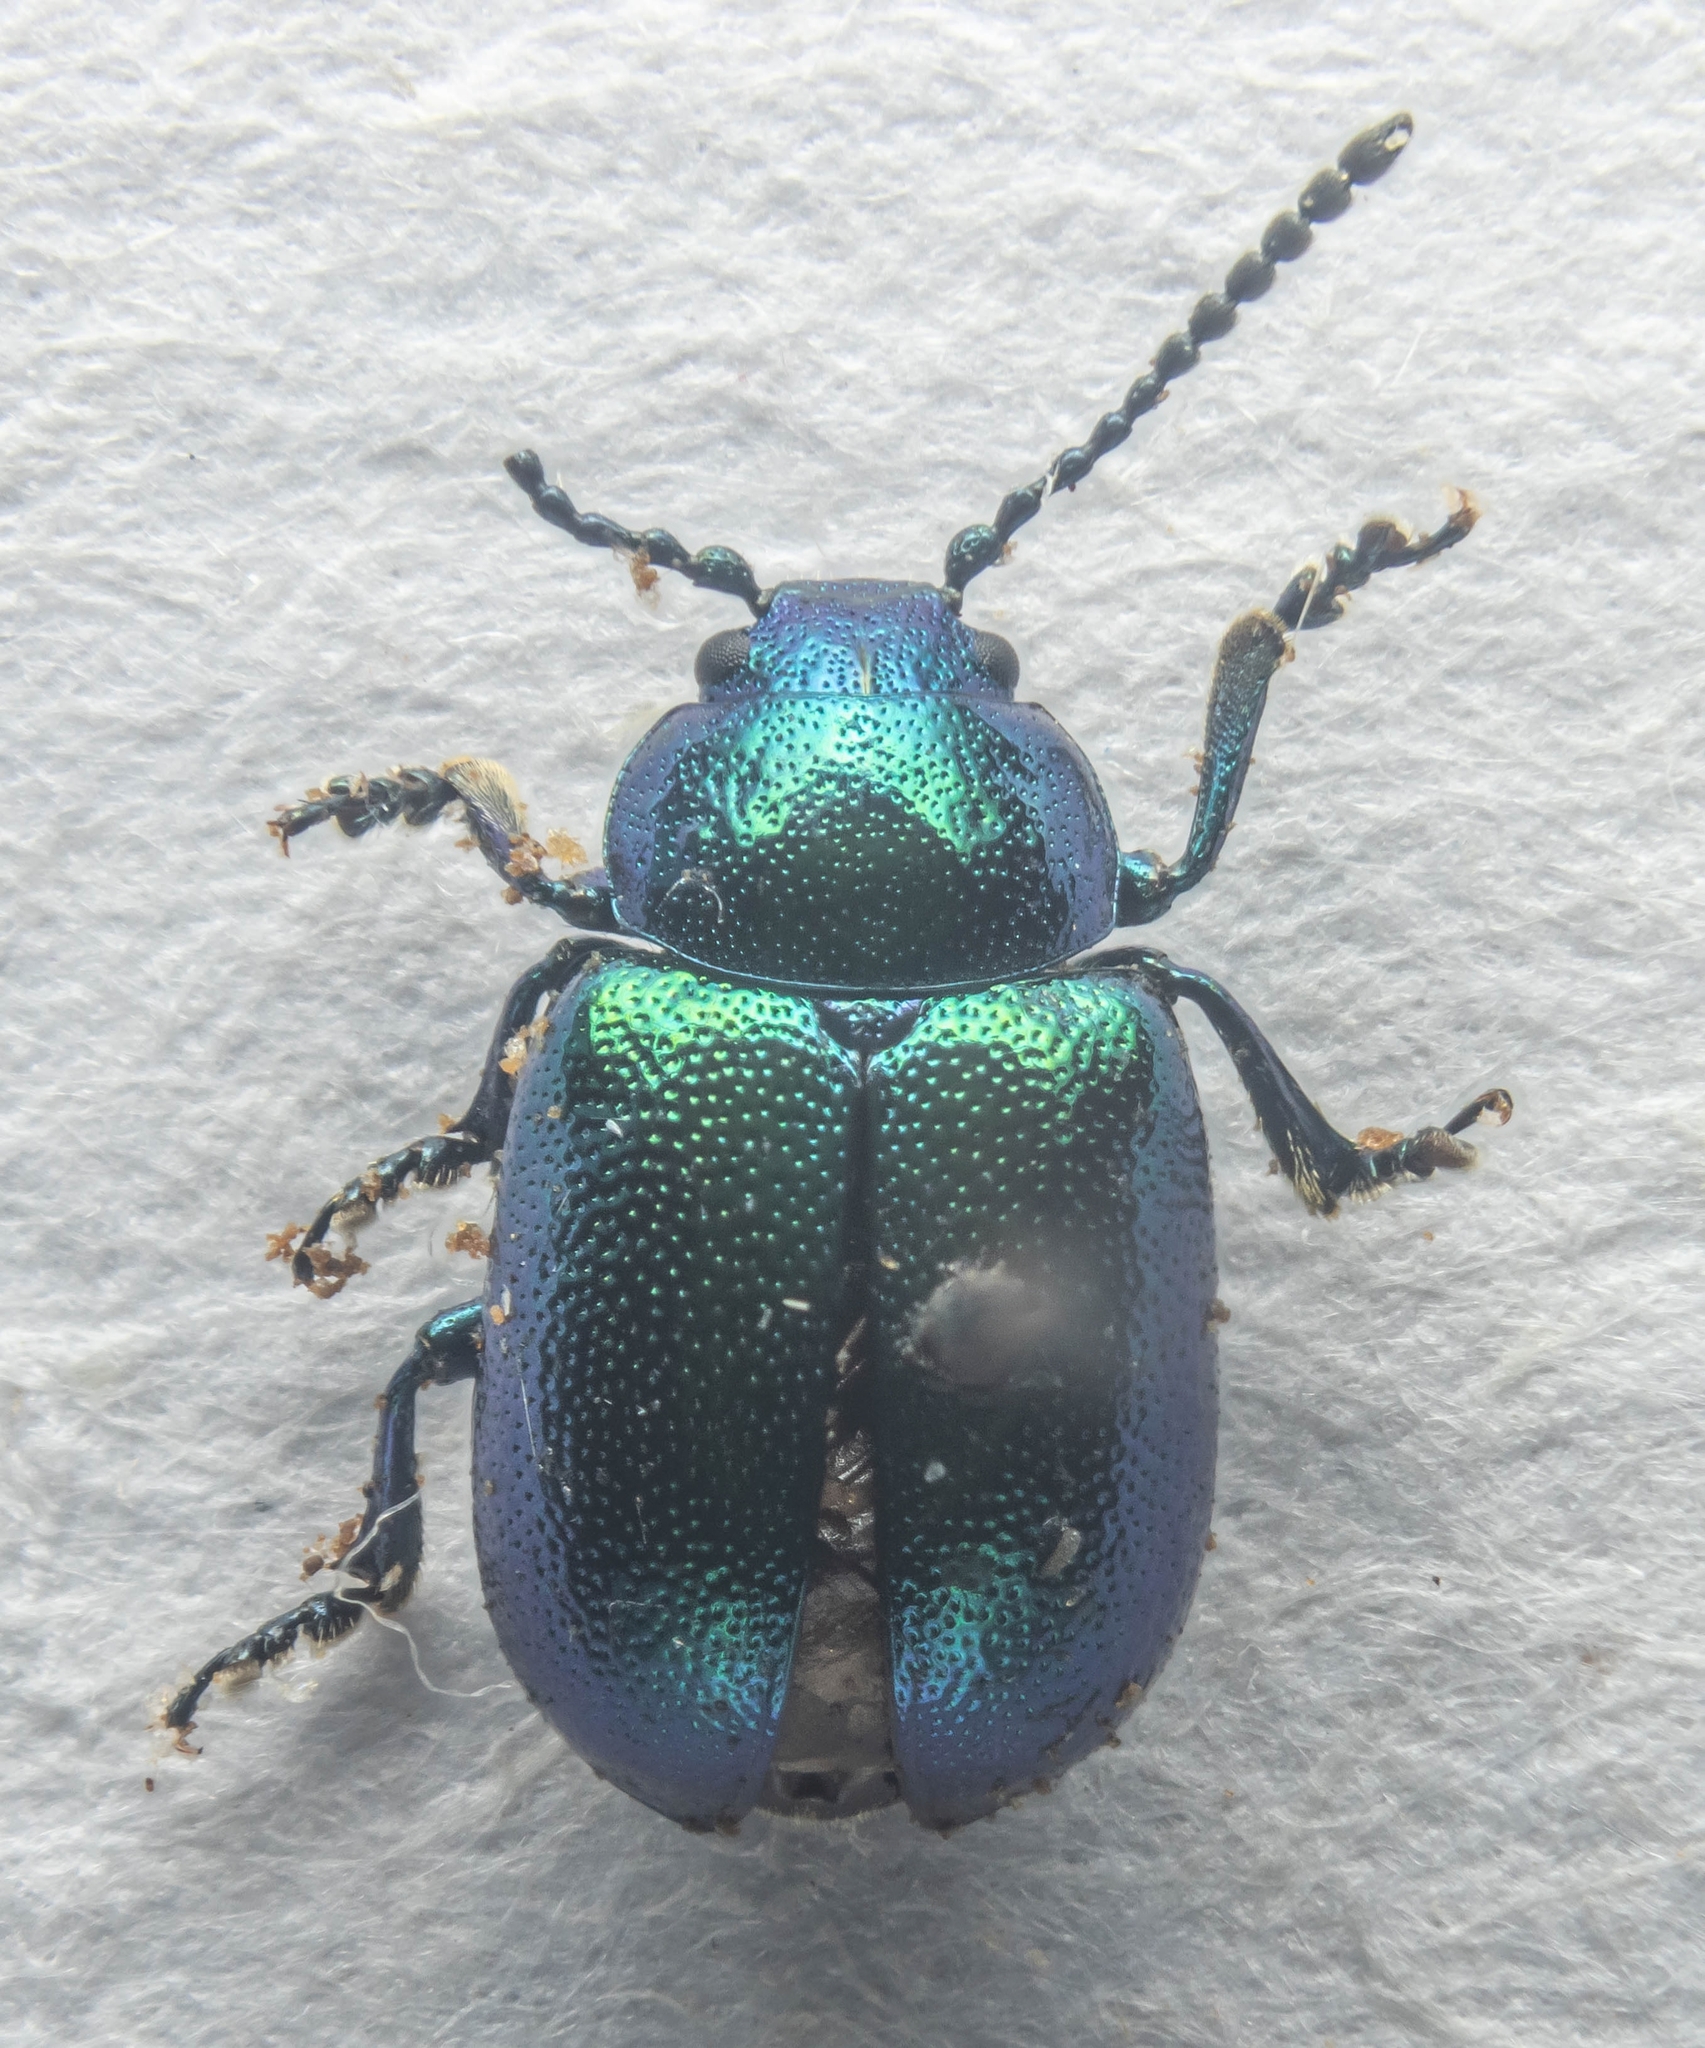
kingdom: Animalia
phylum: Arthropoda
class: Insecta
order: Coleoptera
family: Chrysomelidae
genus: Gastrophysa
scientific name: Gastrophysa viridula
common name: Green dock beetle
